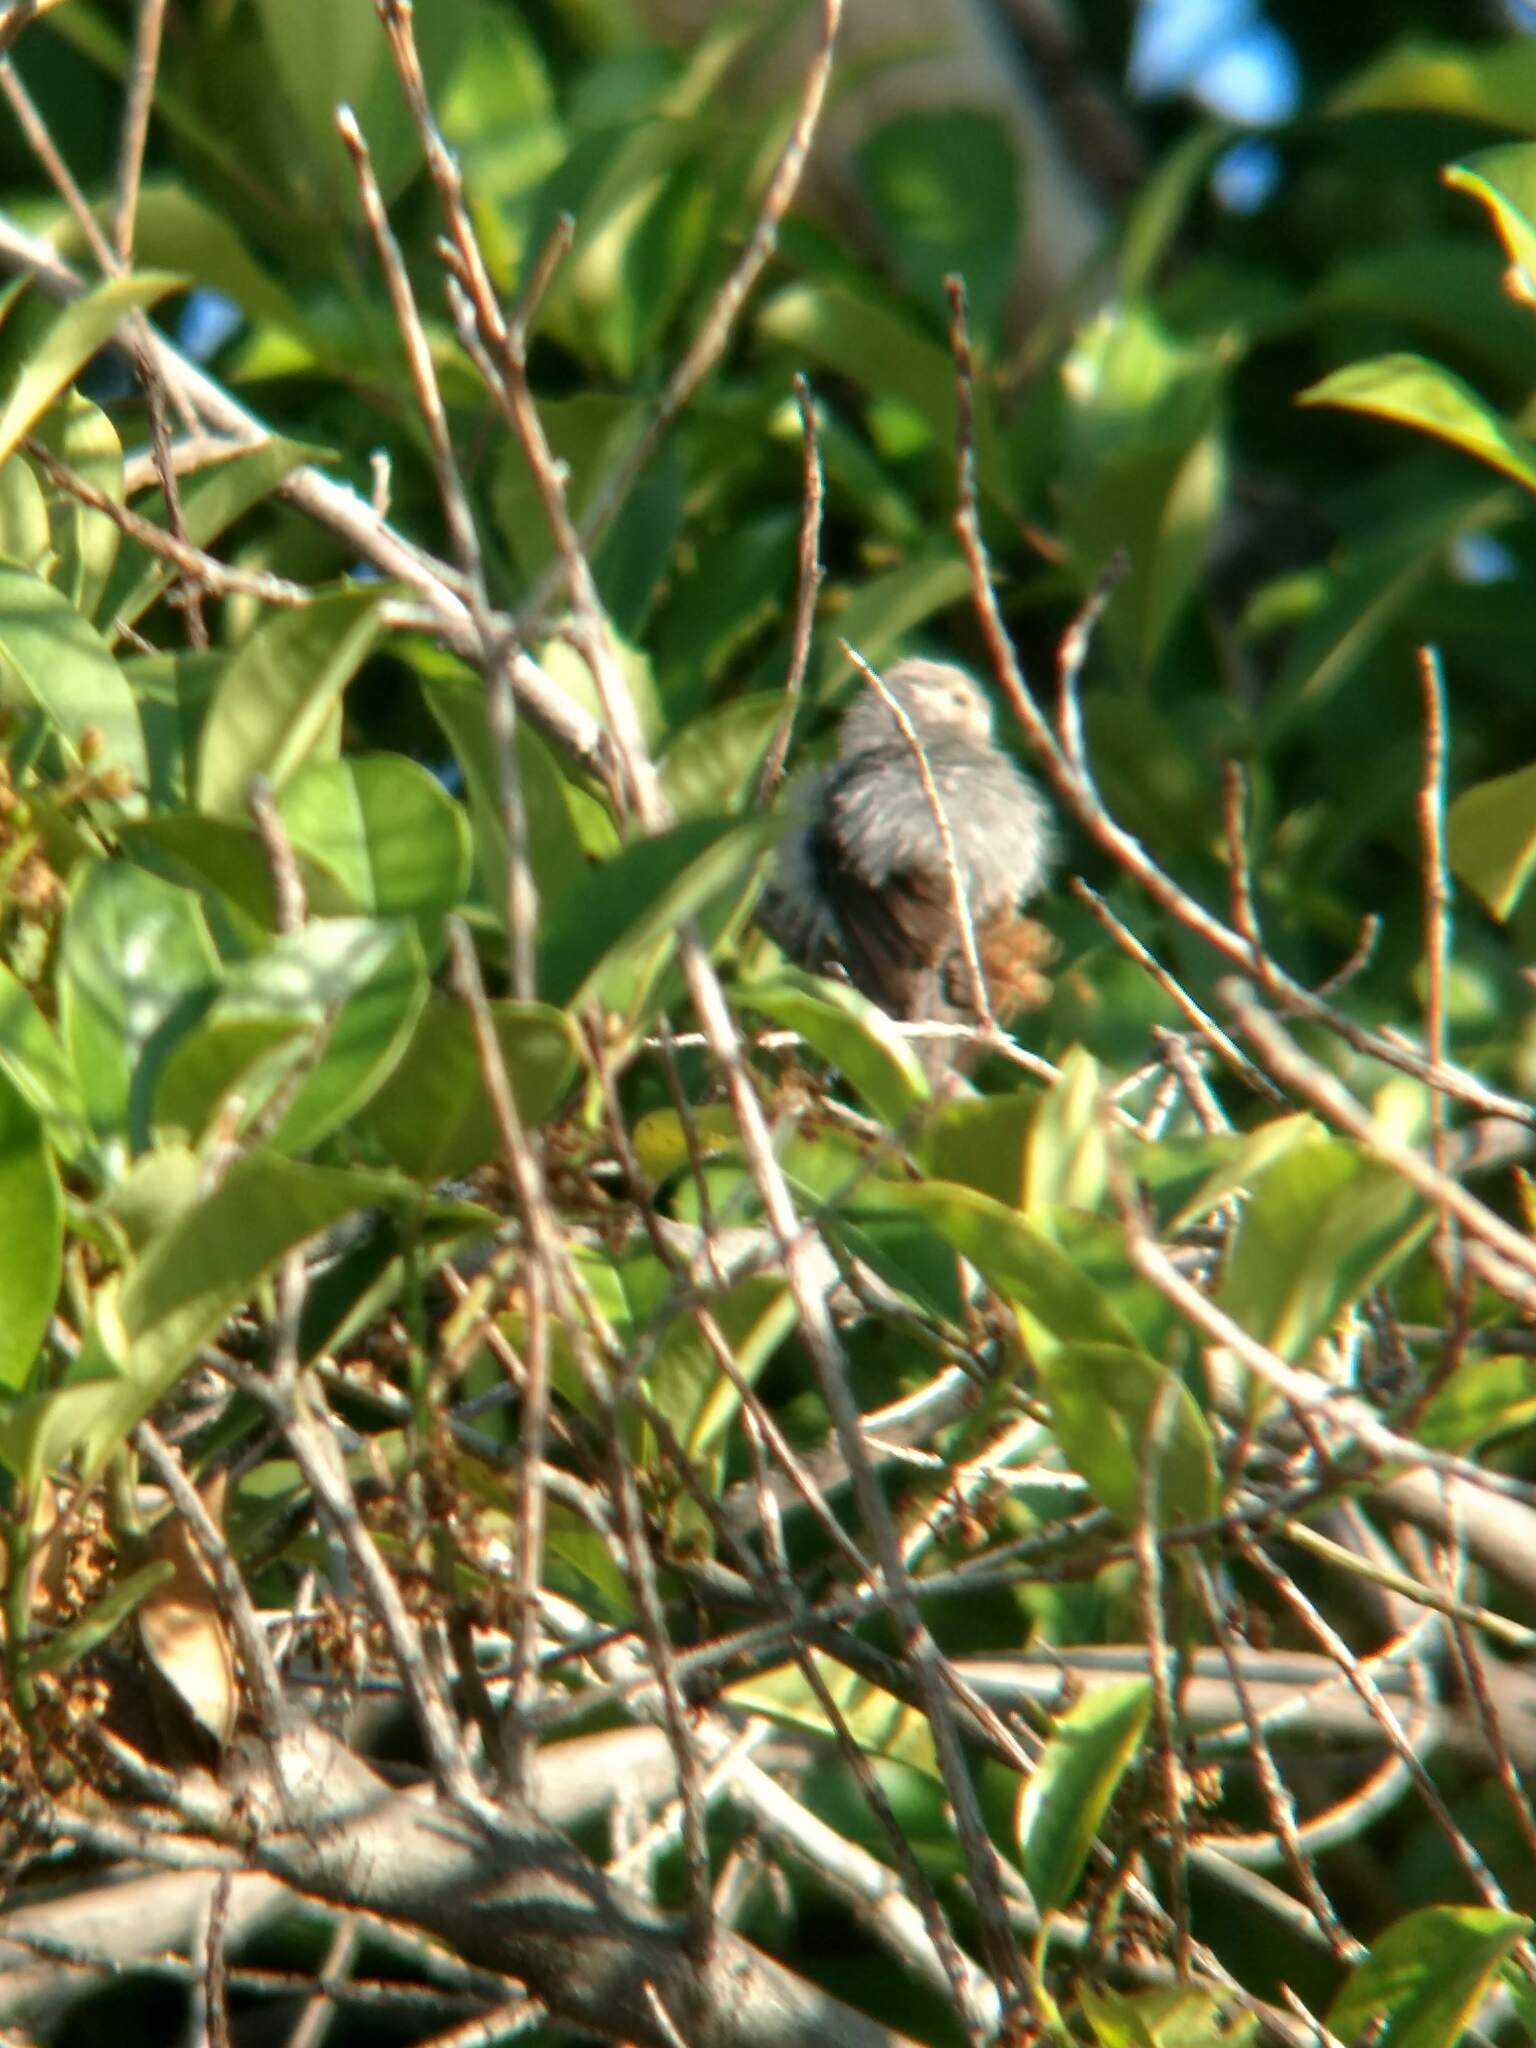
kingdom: Animalia
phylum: Chordata
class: Aves
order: Passeriformes
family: Aegithalidae
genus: Psaltriparus
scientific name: Psaltriparus minimus
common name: American bushtit
